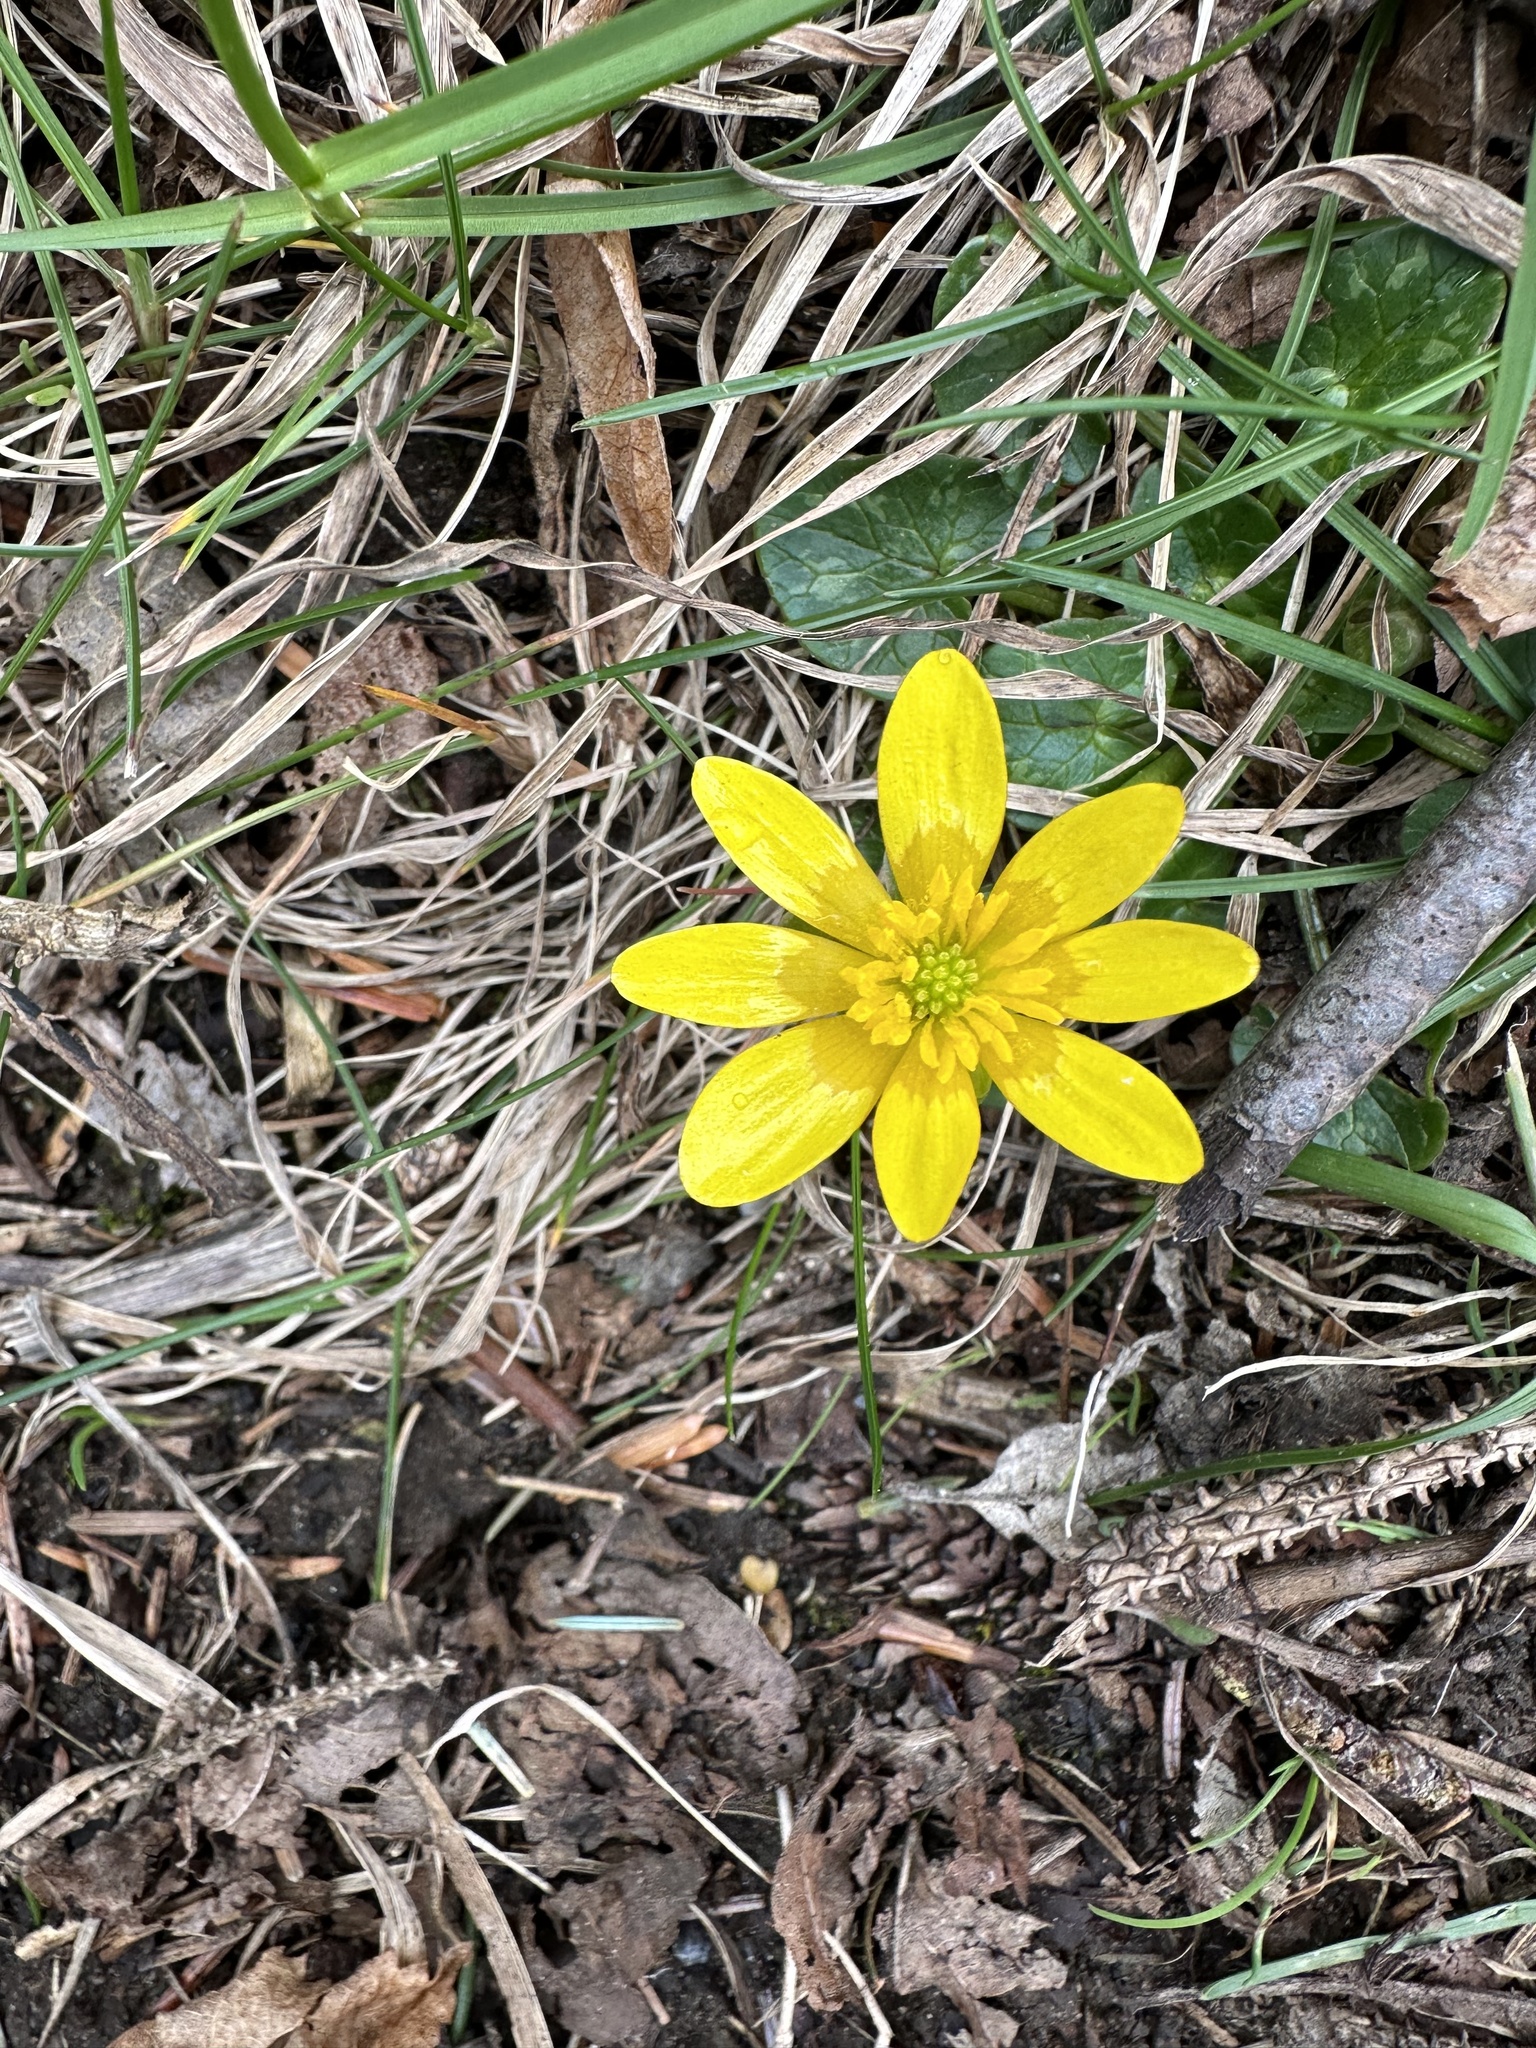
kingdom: Plantae
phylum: Tracheophyta
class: Magnoliopsida
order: Ranunculales
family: Ranunculaceae
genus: Ficaria
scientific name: Ficaria verna
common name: Lesser celandine
